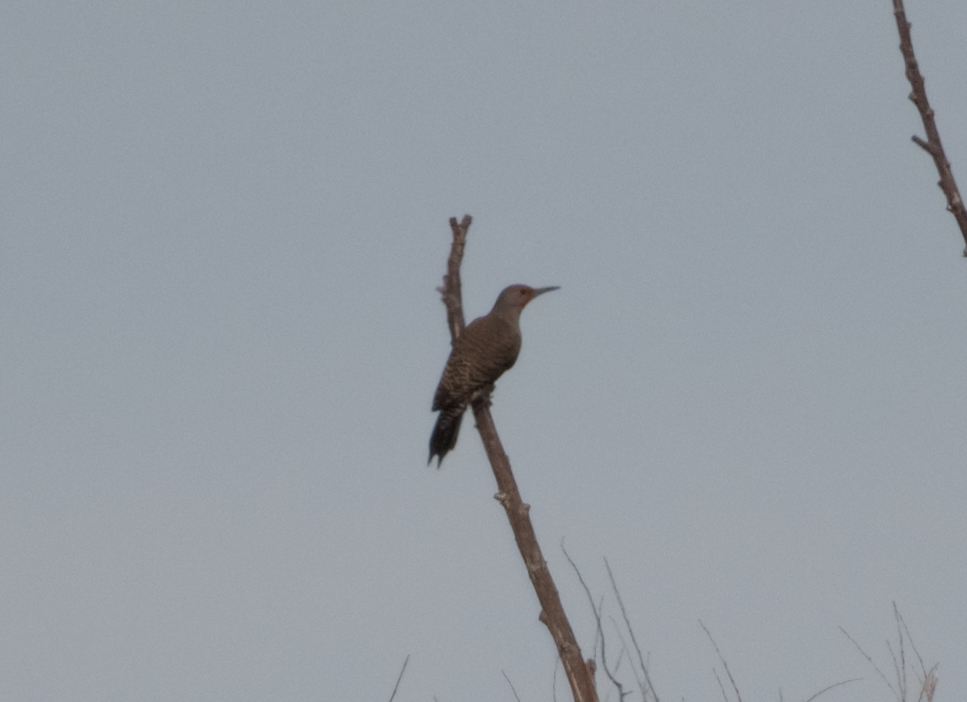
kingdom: Animalia
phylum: Chordata
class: Aves
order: Piciformes
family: Picidae
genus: Colaptes
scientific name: Colaptes auratus
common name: Northern flicker
